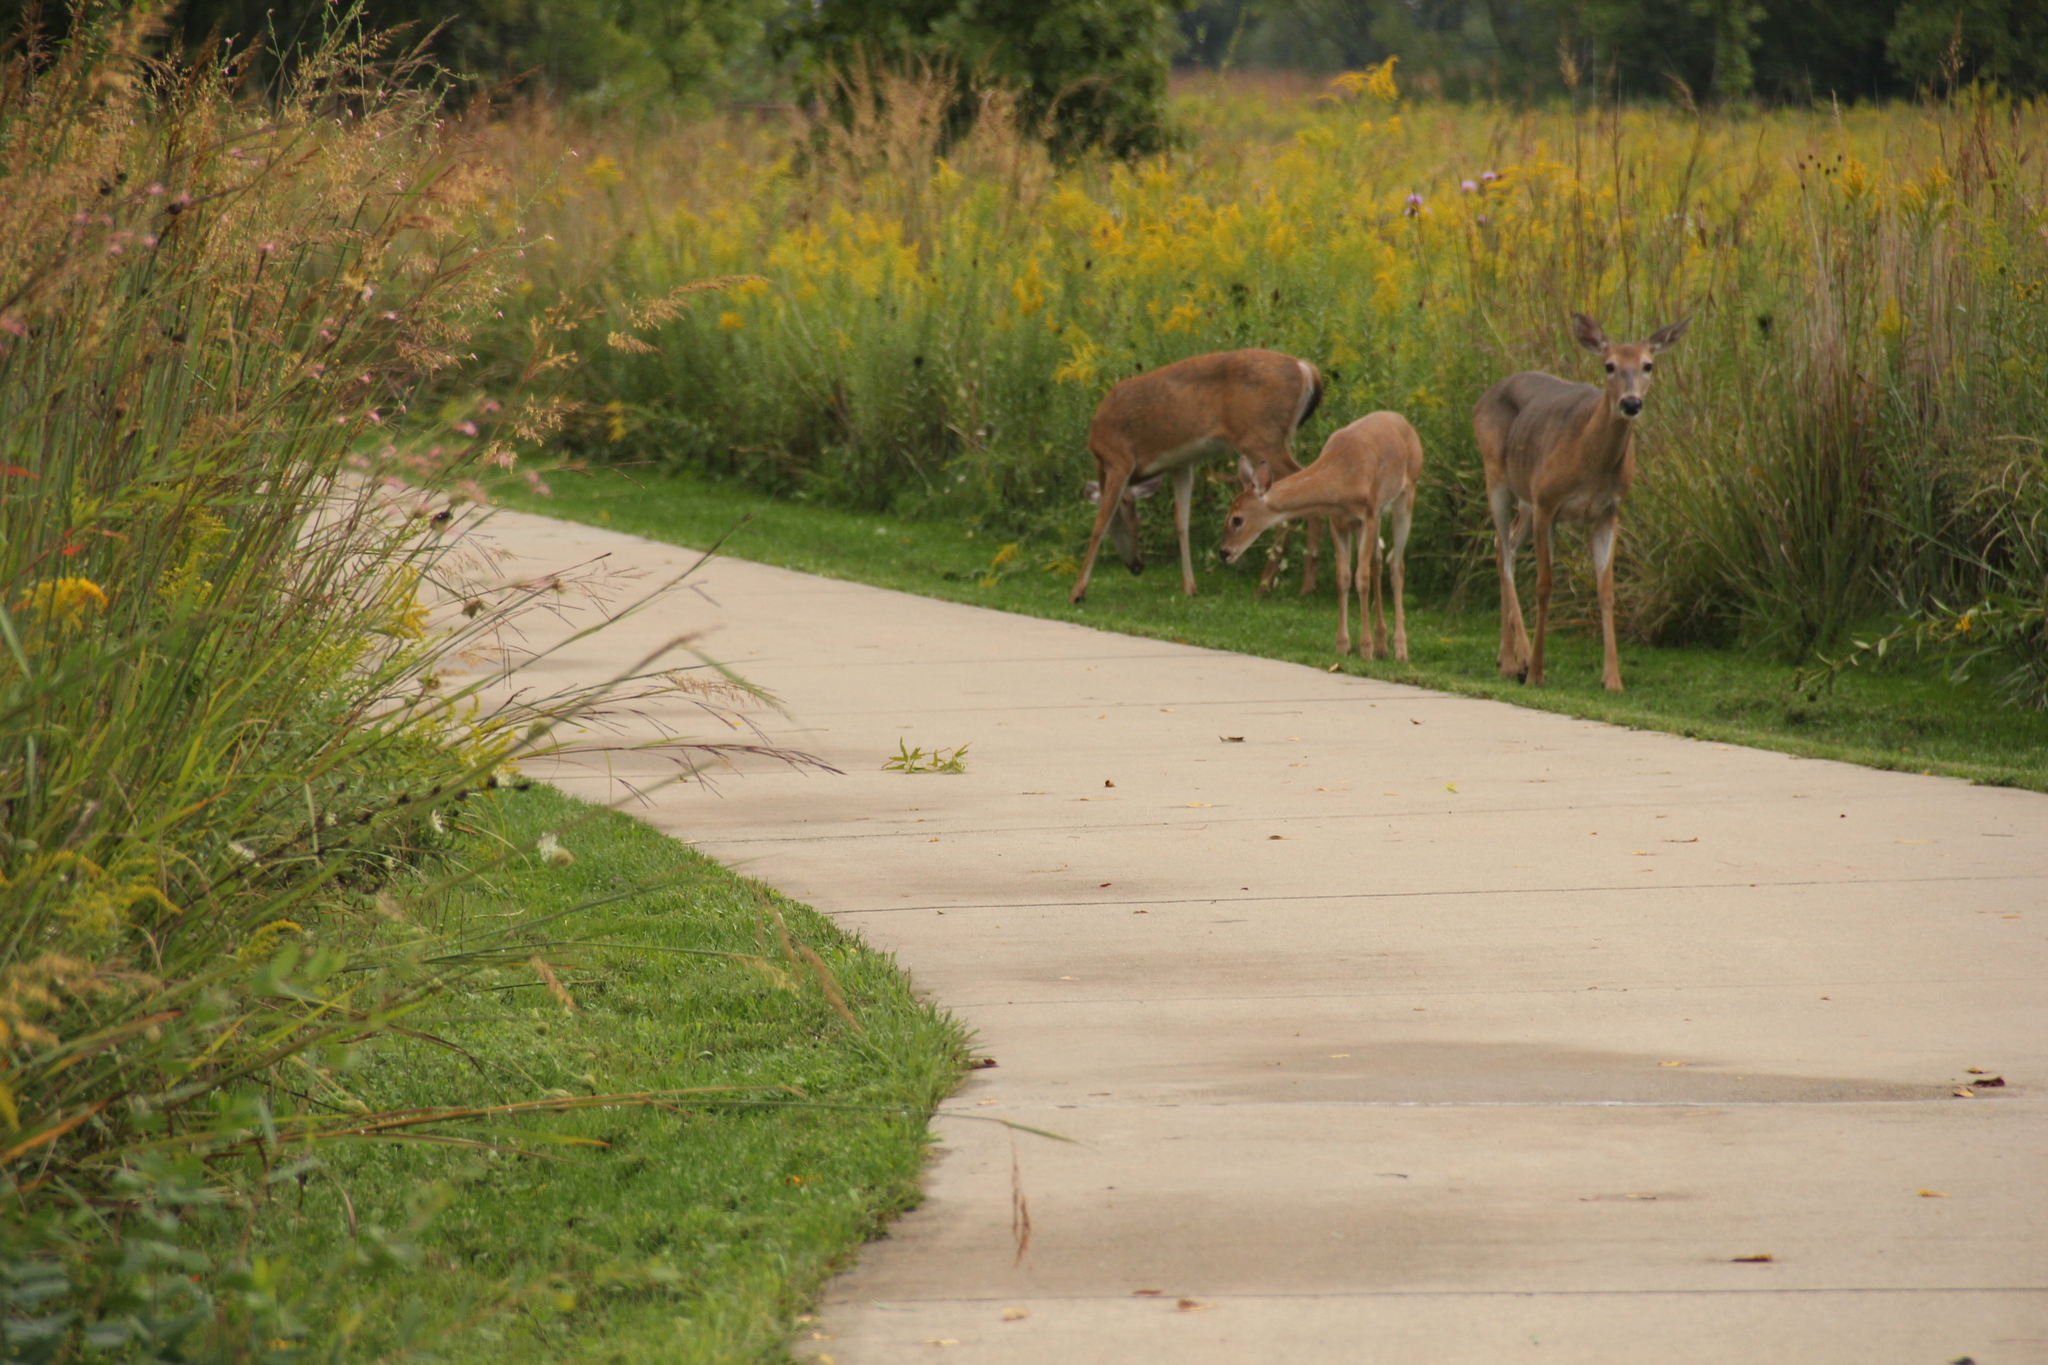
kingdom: Animalia
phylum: Chordata
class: Mammalia
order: Artiodactyla
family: Cervidae
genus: Odocoileus
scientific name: Odocoileus virginianus
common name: White-tailed deer
